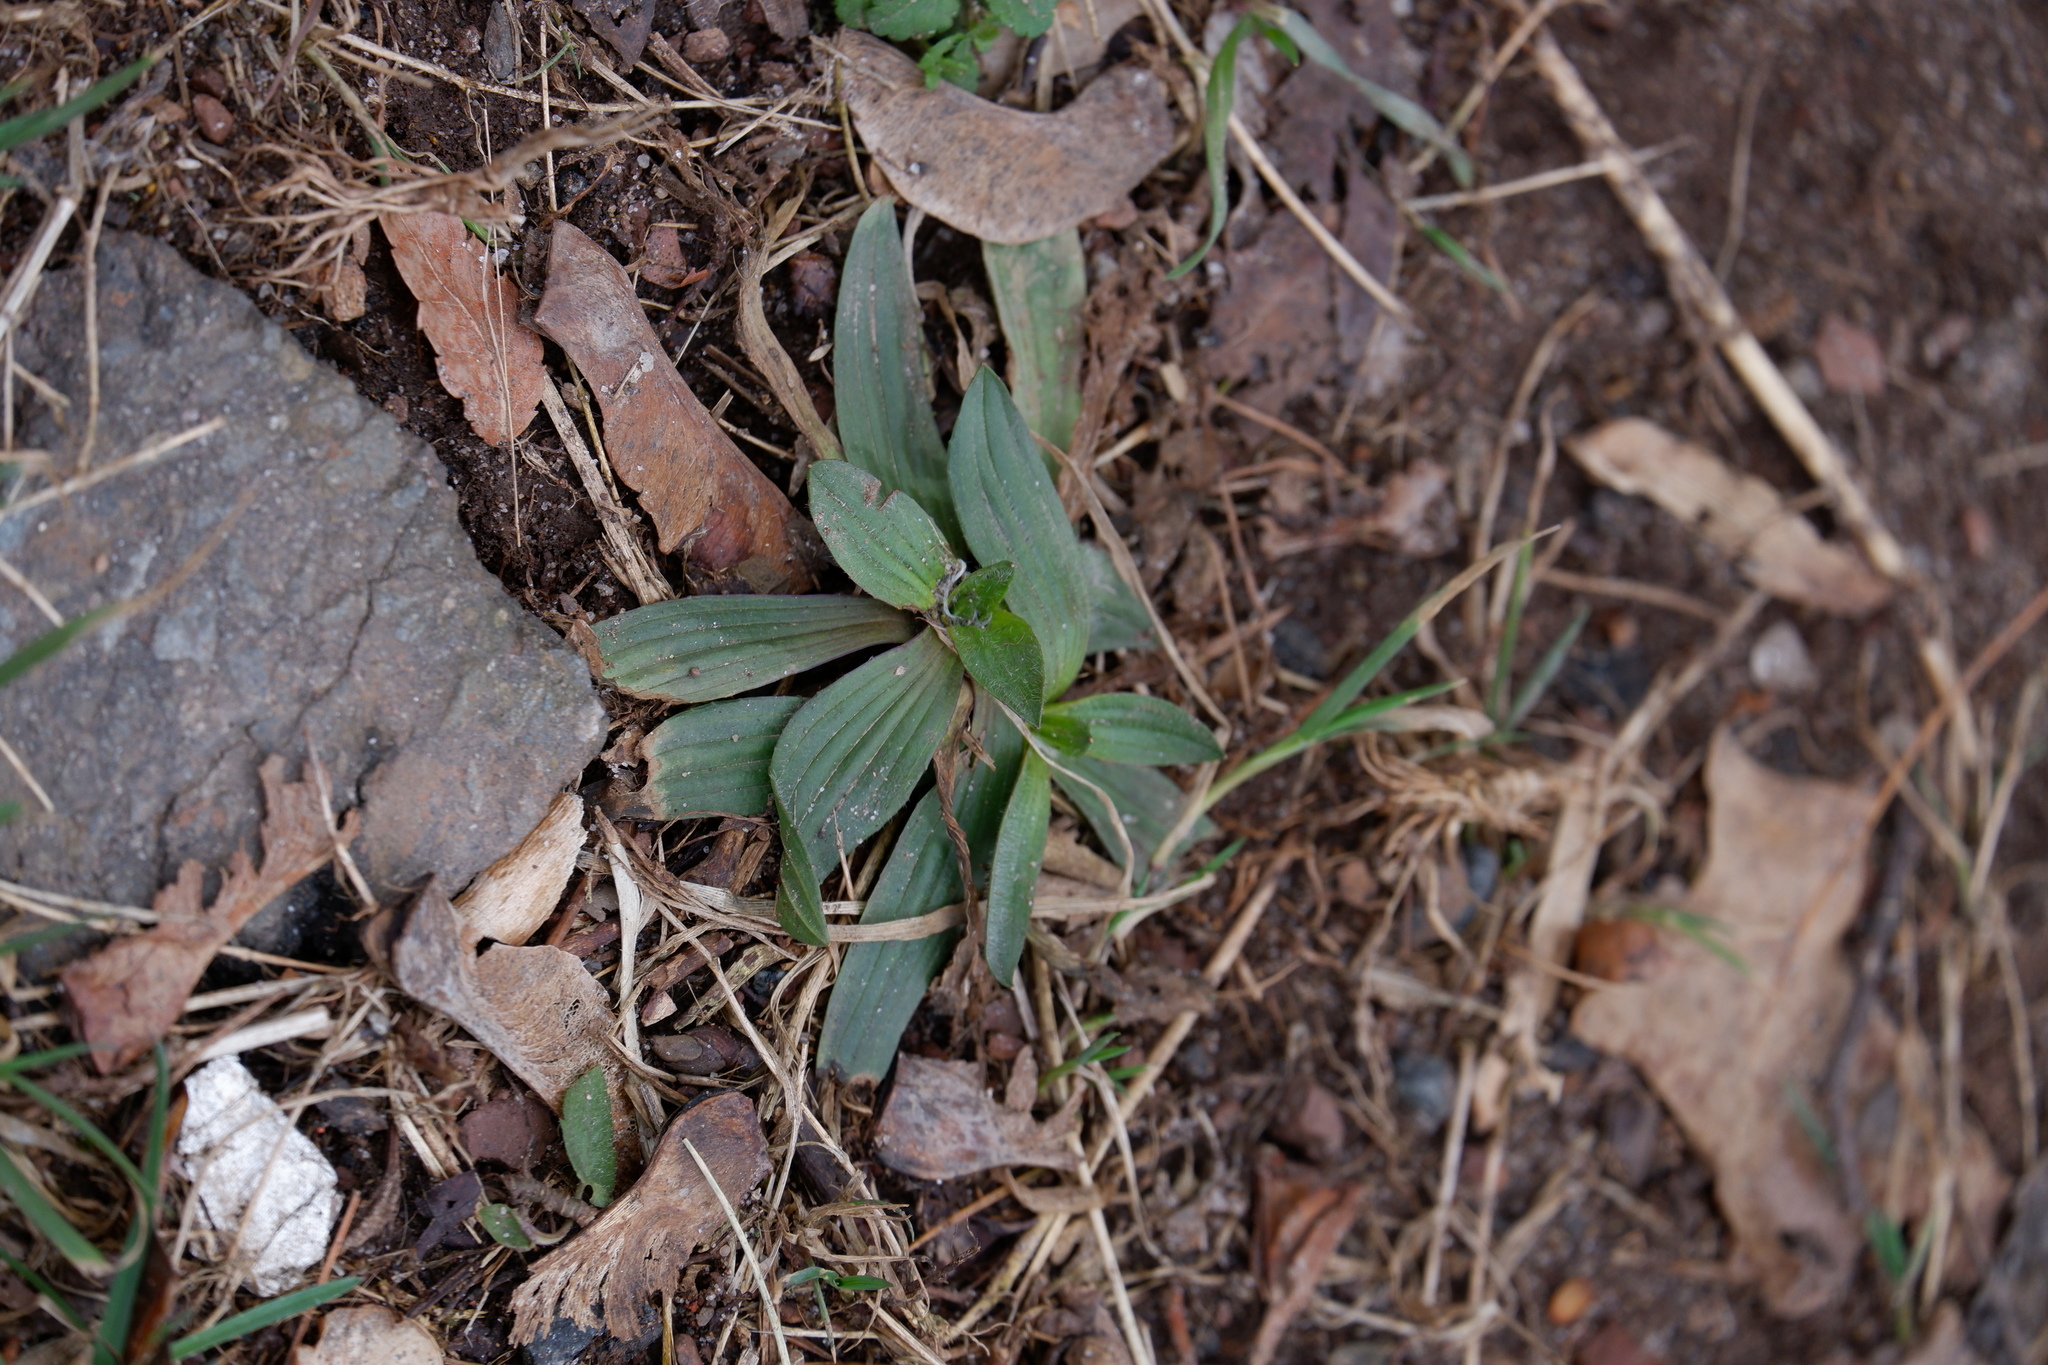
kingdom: Plantae
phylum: Tracheophyta
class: Magnoliopsida
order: Lamiales
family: Plantaginaceae
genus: Plantago
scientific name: Plantago lanceolata
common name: Ribwort plantain
